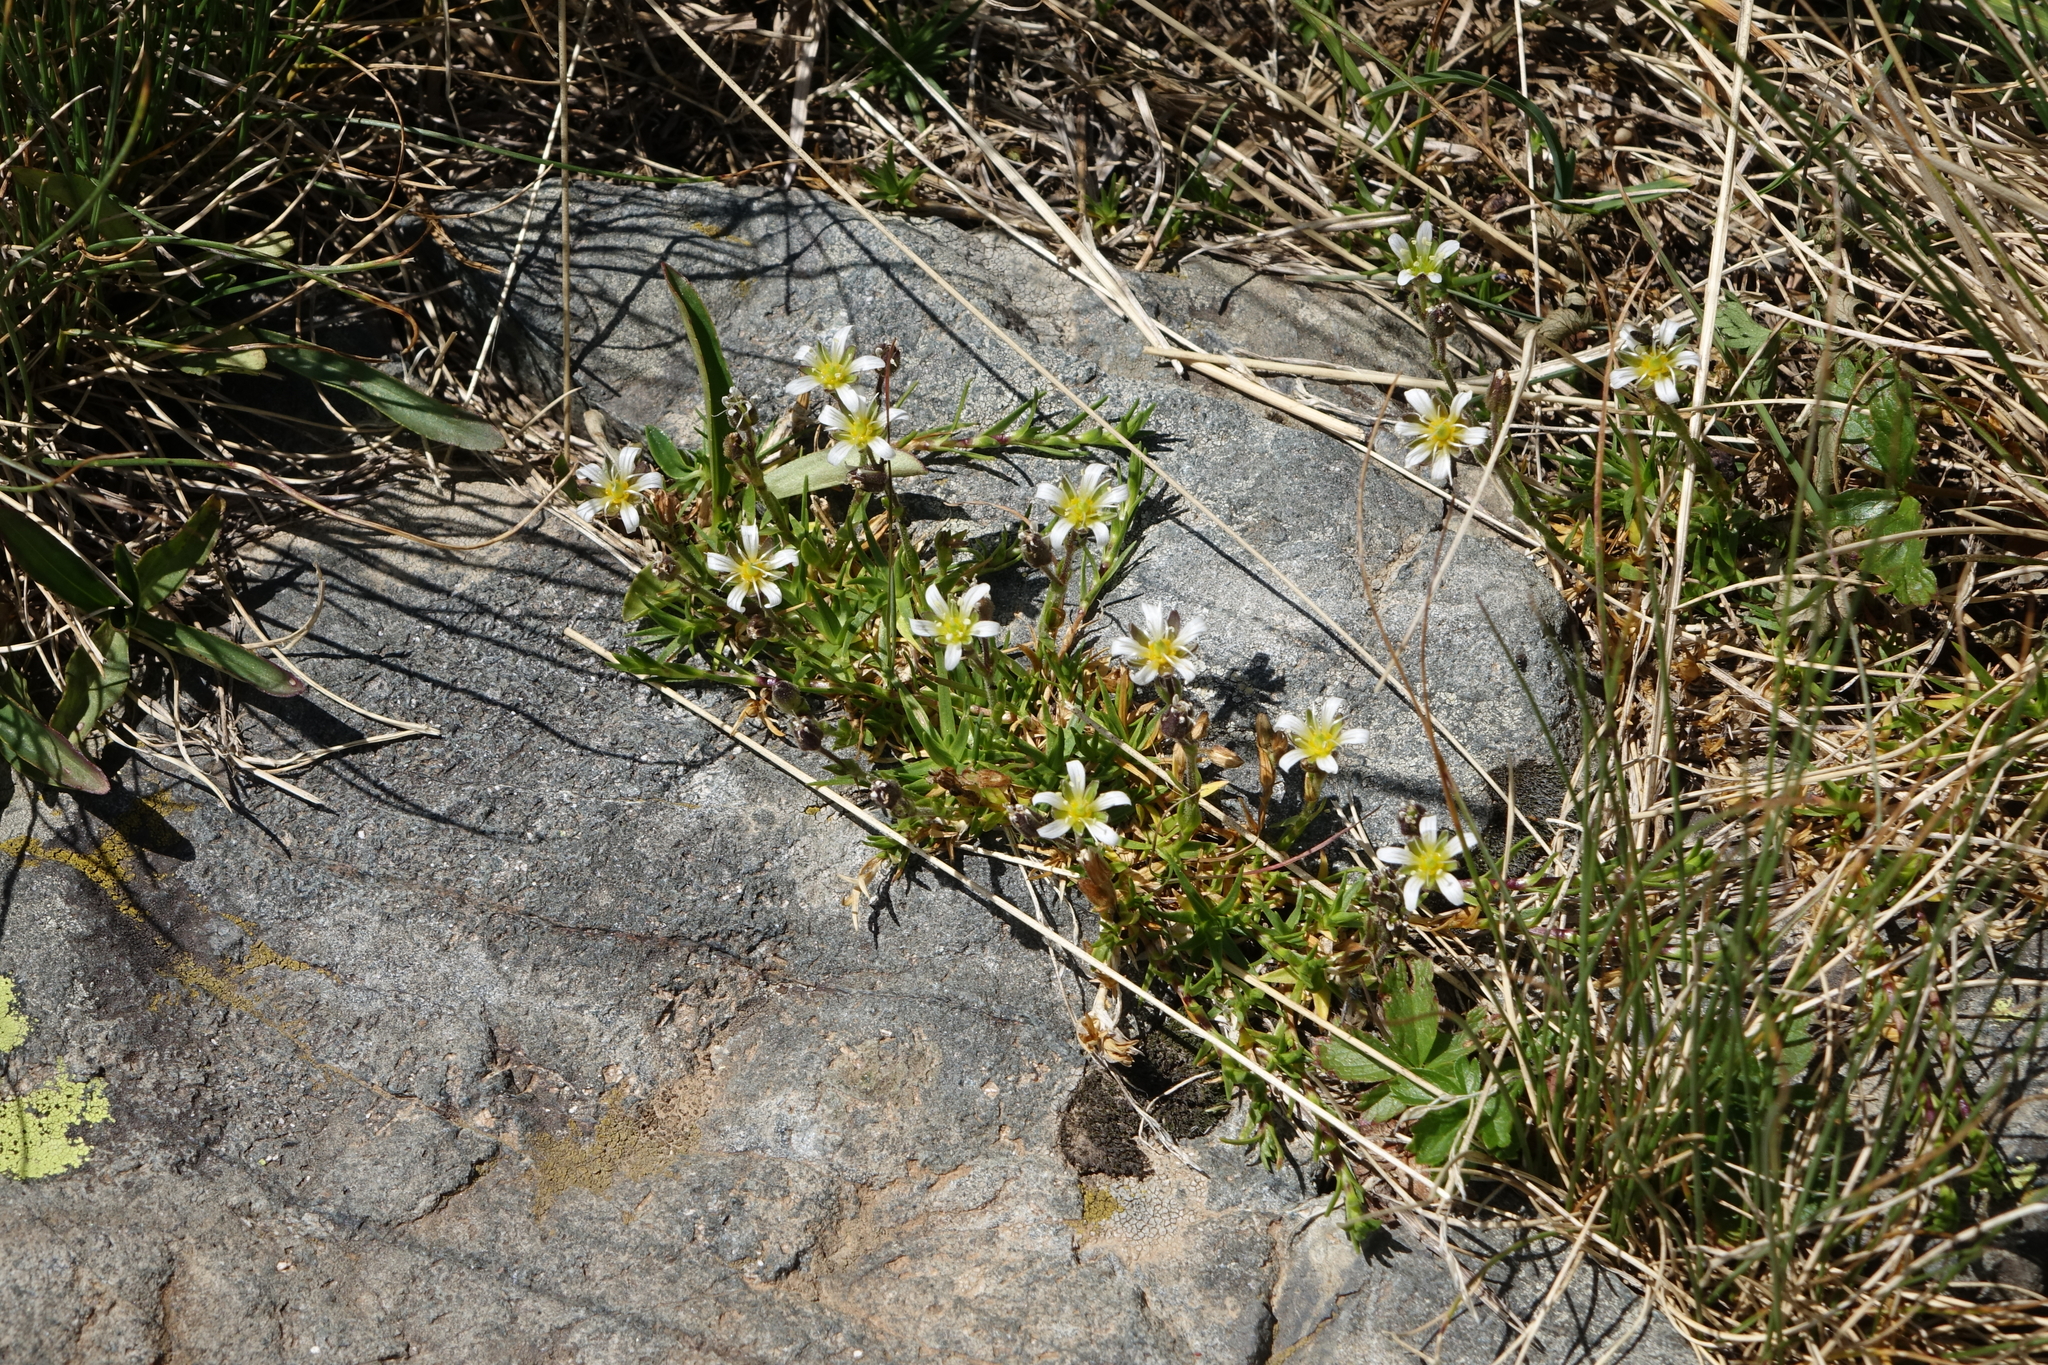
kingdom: Plantae
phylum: Tracheophyta
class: Magnoliopsida
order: Caryophyllales
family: Caryophyllaceae
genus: Pseudocherleria
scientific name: Pseudocherleria aizoides
